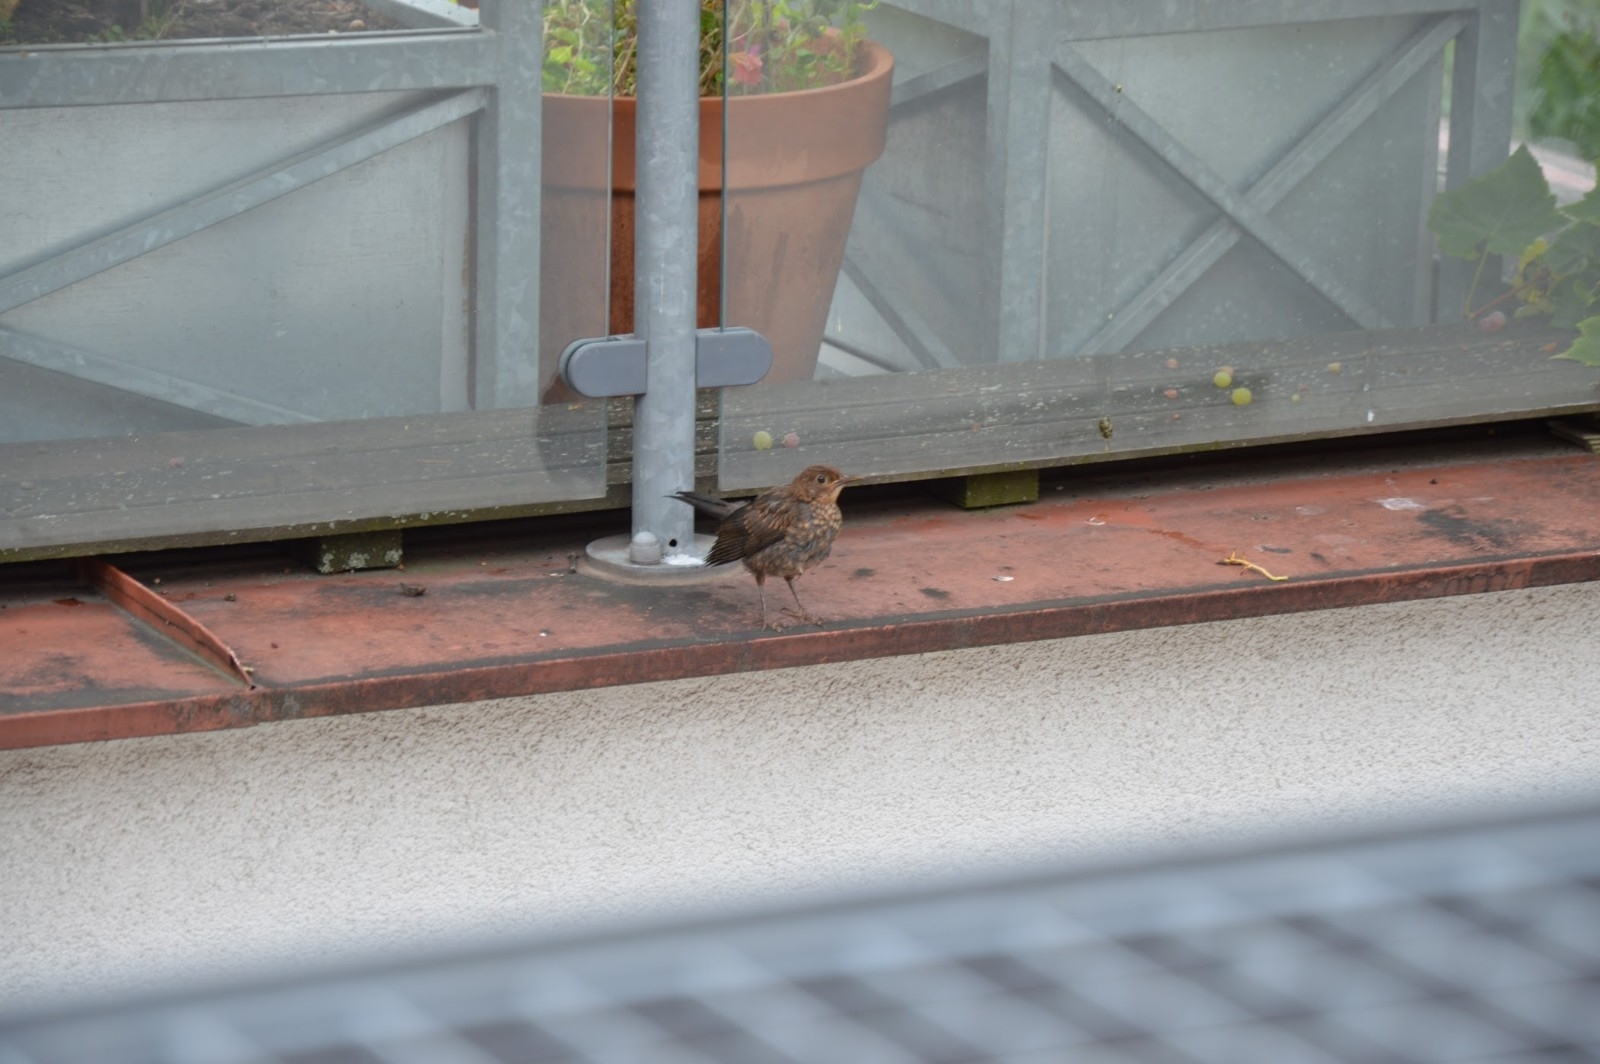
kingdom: Animalia
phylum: Chordata
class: Aves
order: Passeriformes
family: Turdidae
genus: Turdus
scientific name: Turdus merula
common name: Common blackbird
